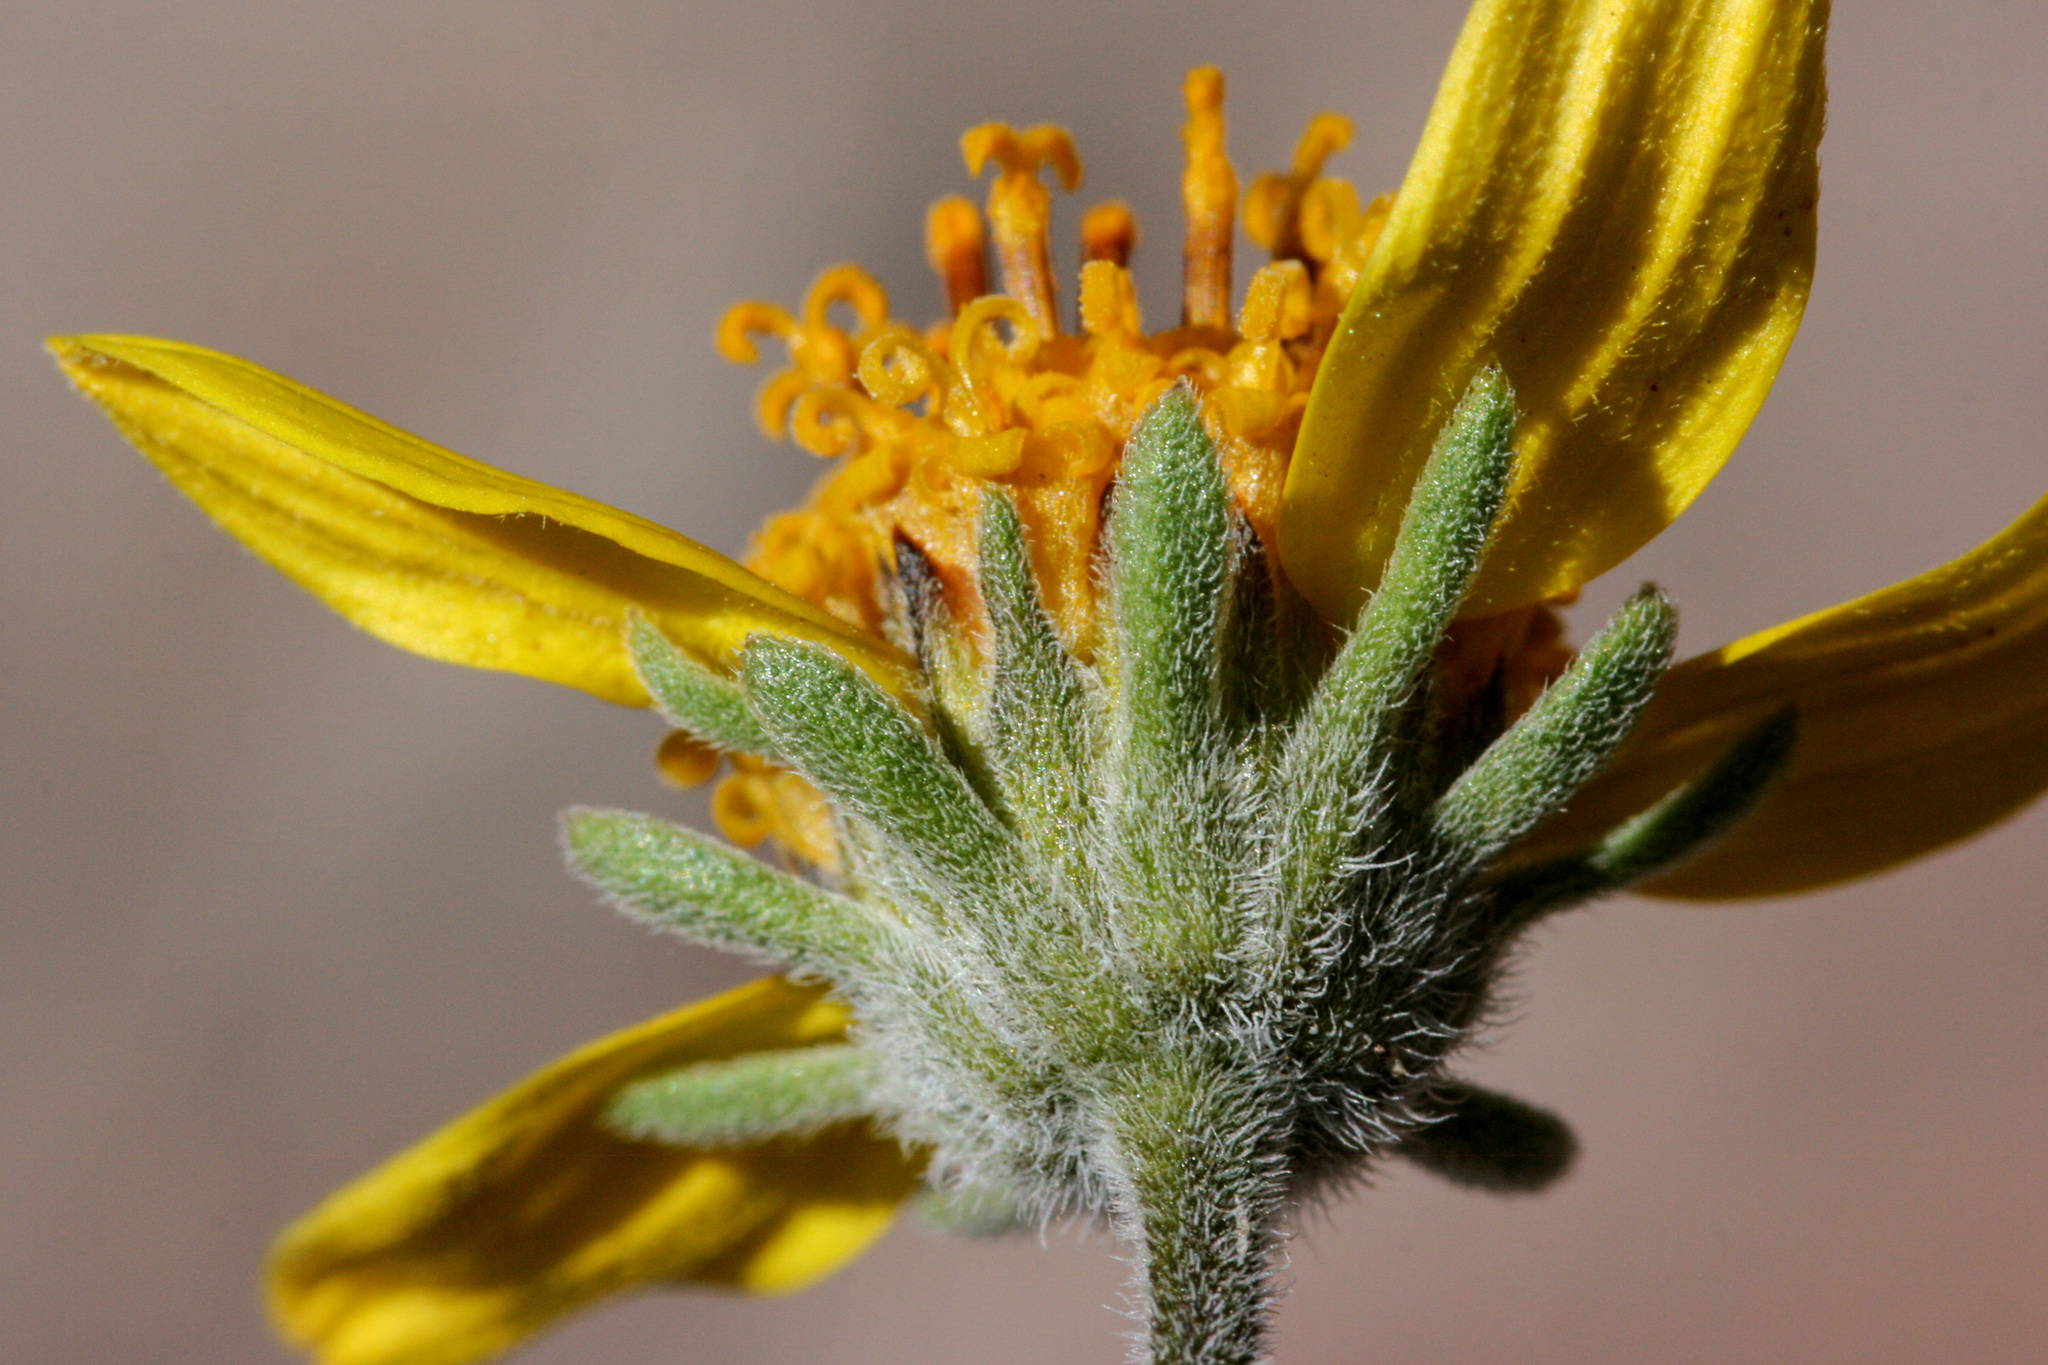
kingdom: Plantae
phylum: Tracheophyta
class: Magnoliopsida
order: Asterales
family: Asteraceae
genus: Bahiopsis
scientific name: Bahiopsis parishii
